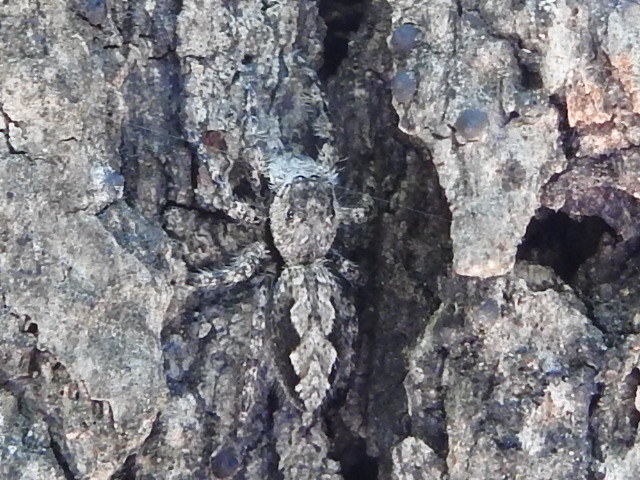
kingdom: Animalia
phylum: Arthropoda
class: Arachnida
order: Araneae
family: Salticidae
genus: Platycryptus
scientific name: Platycryptus undatus
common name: Tan jumping spider
